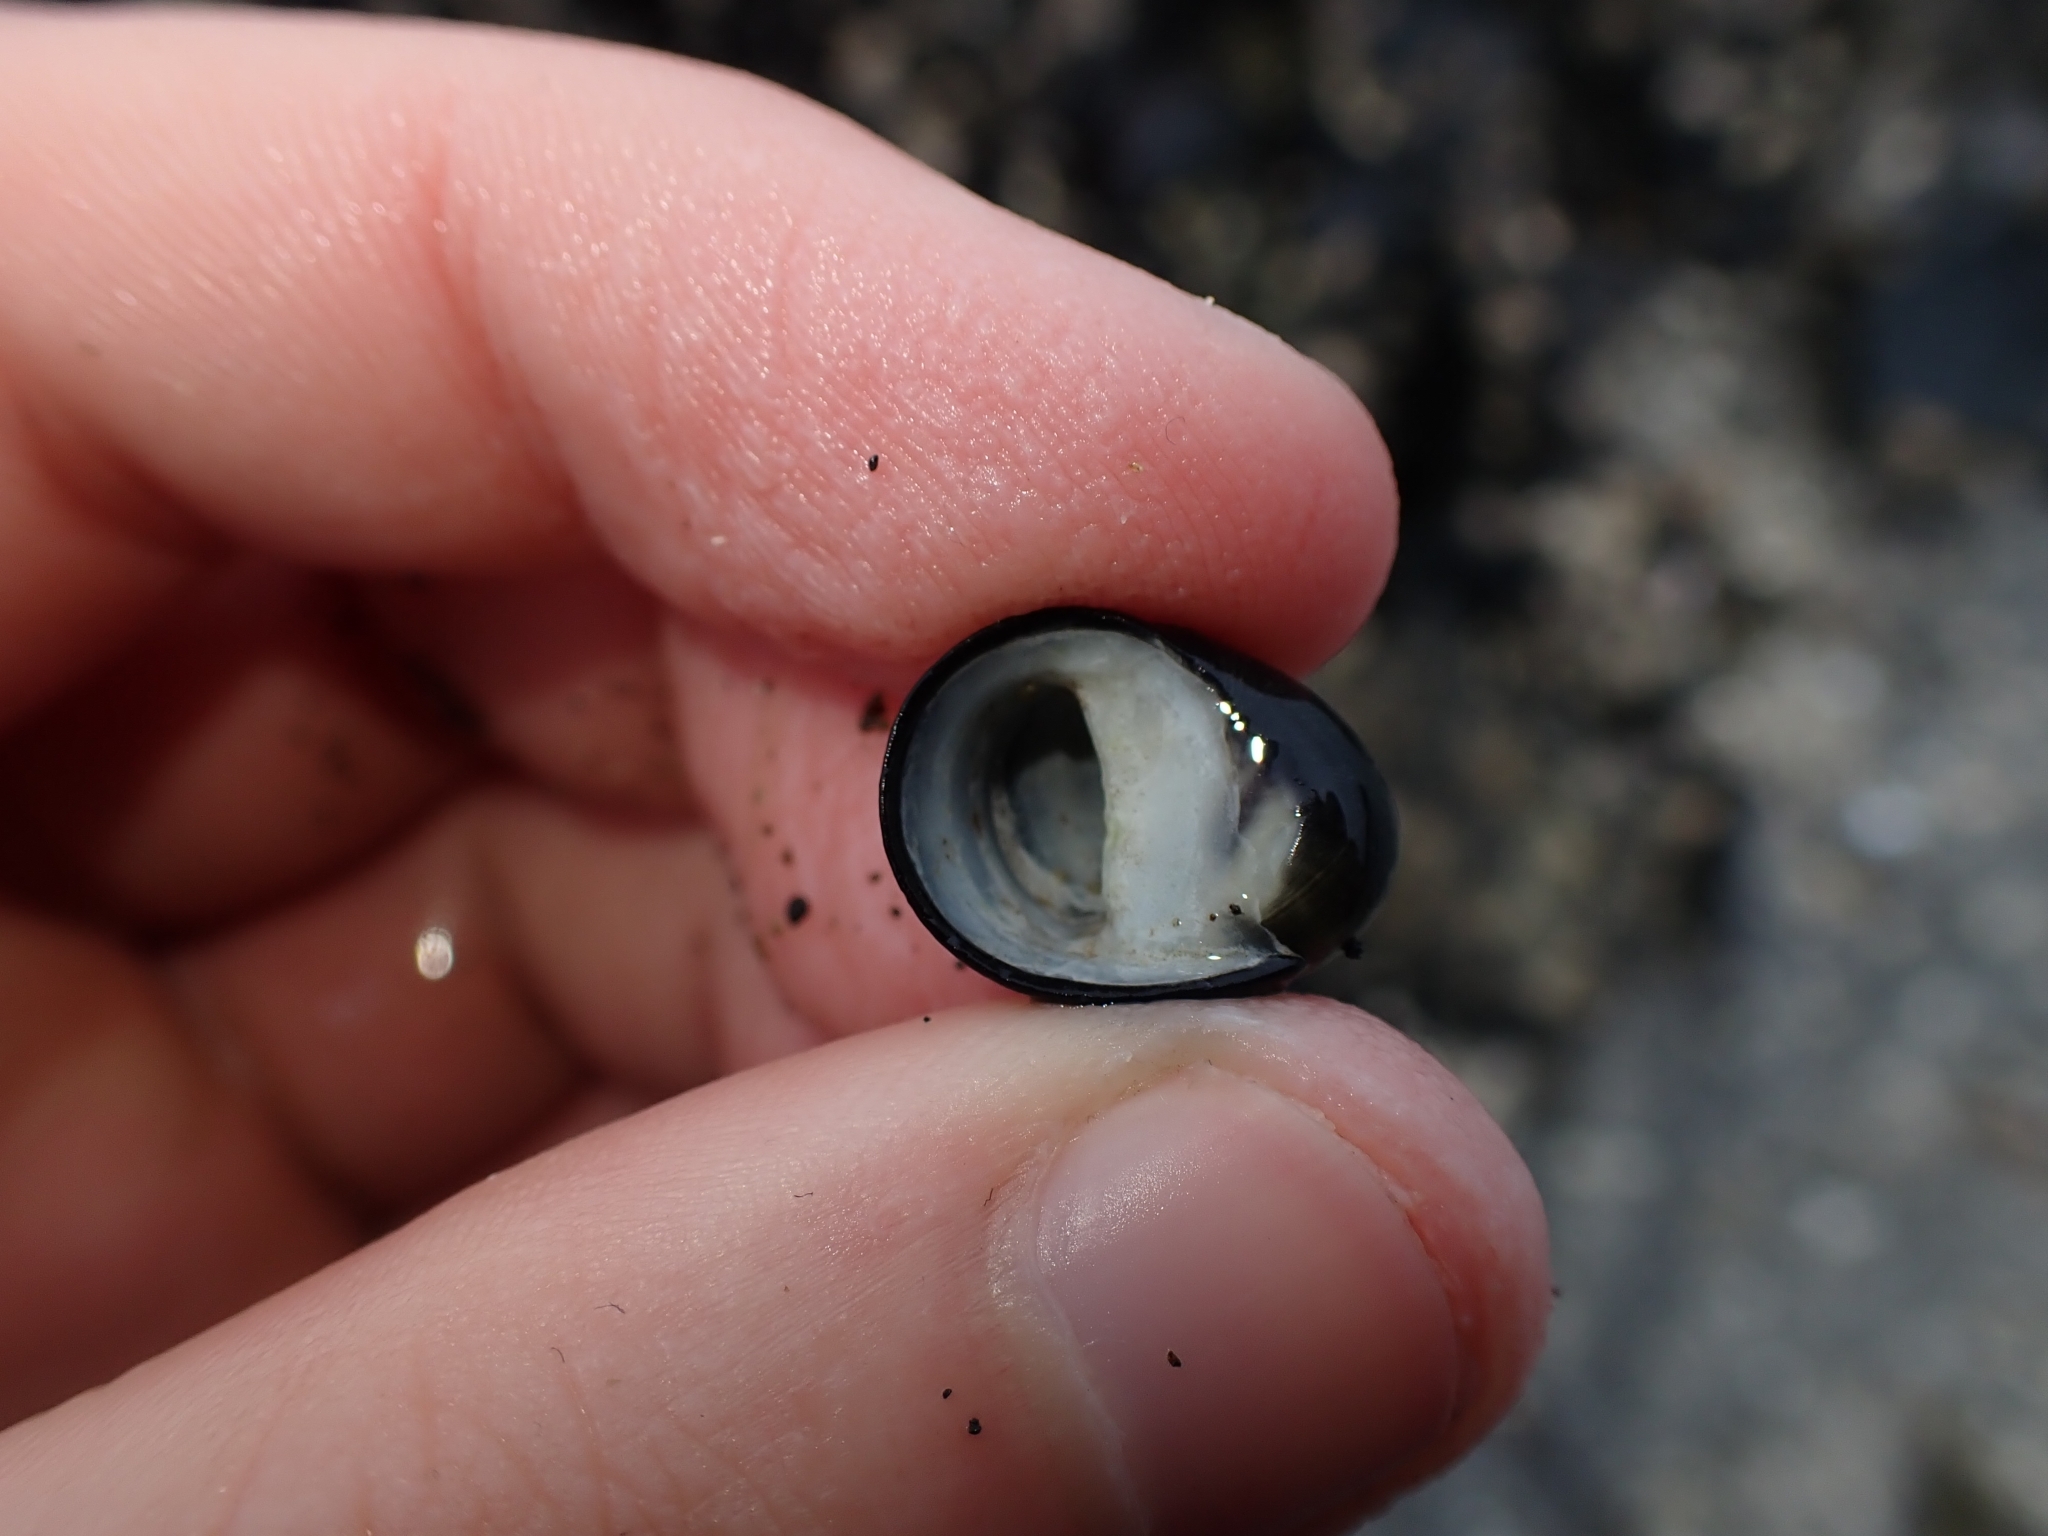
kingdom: Animalia
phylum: Mollusca
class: Gastropoda
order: Cycloneritida
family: Neritidae
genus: Nerita
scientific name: Nerita melanotragus
